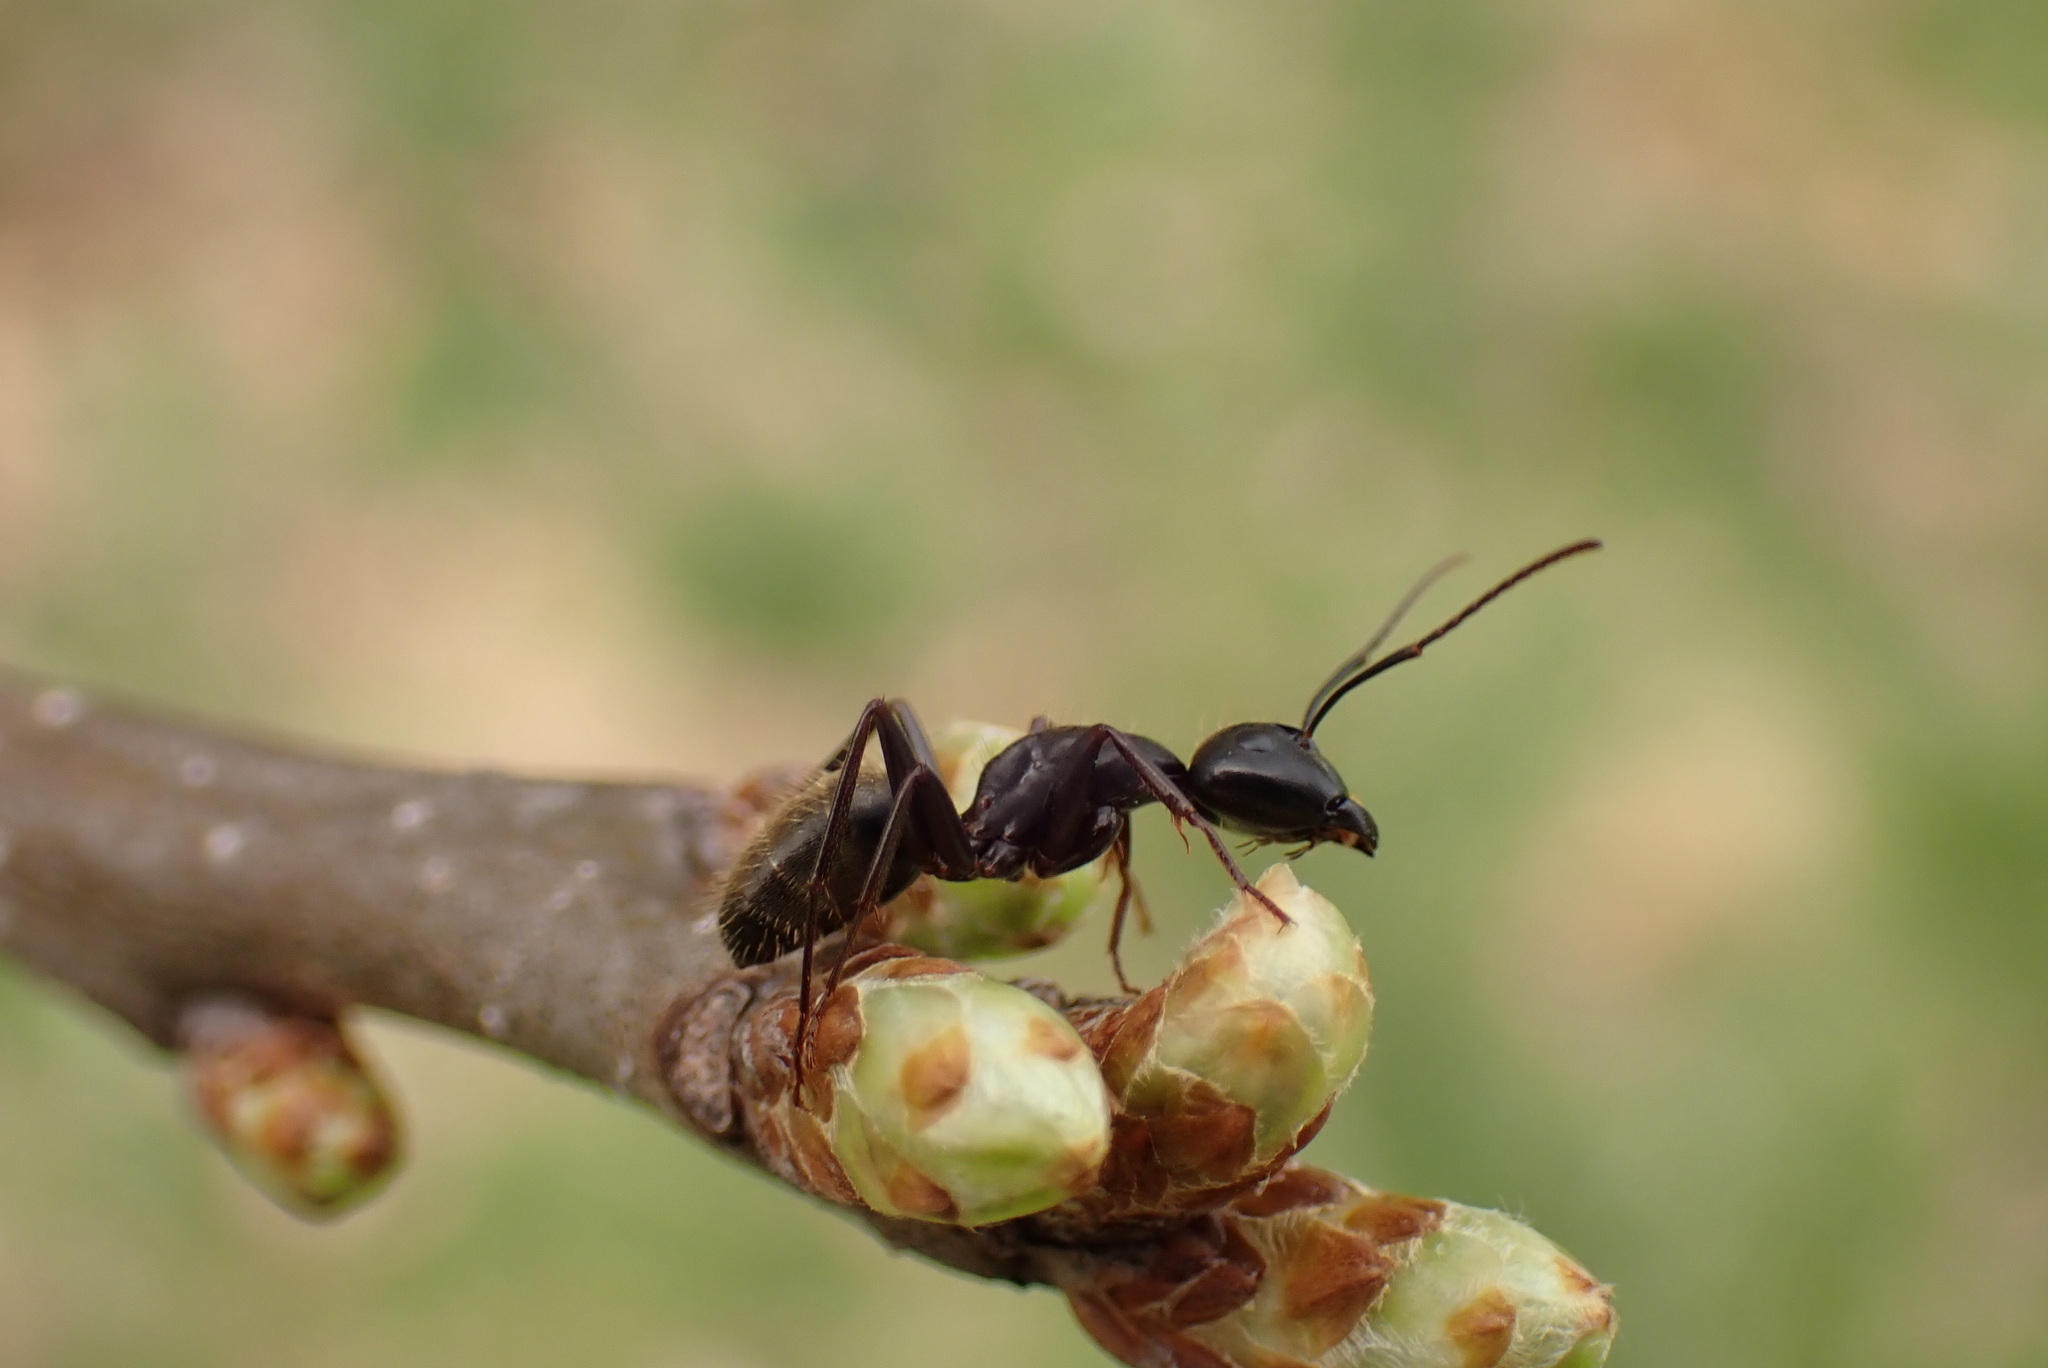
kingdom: Animalia
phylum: Arthropoda
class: Insecta
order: Hymenoptera
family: Formicidae
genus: Camponotus
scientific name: Camponotus pennsylvanicus
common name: Black carpenter ant
